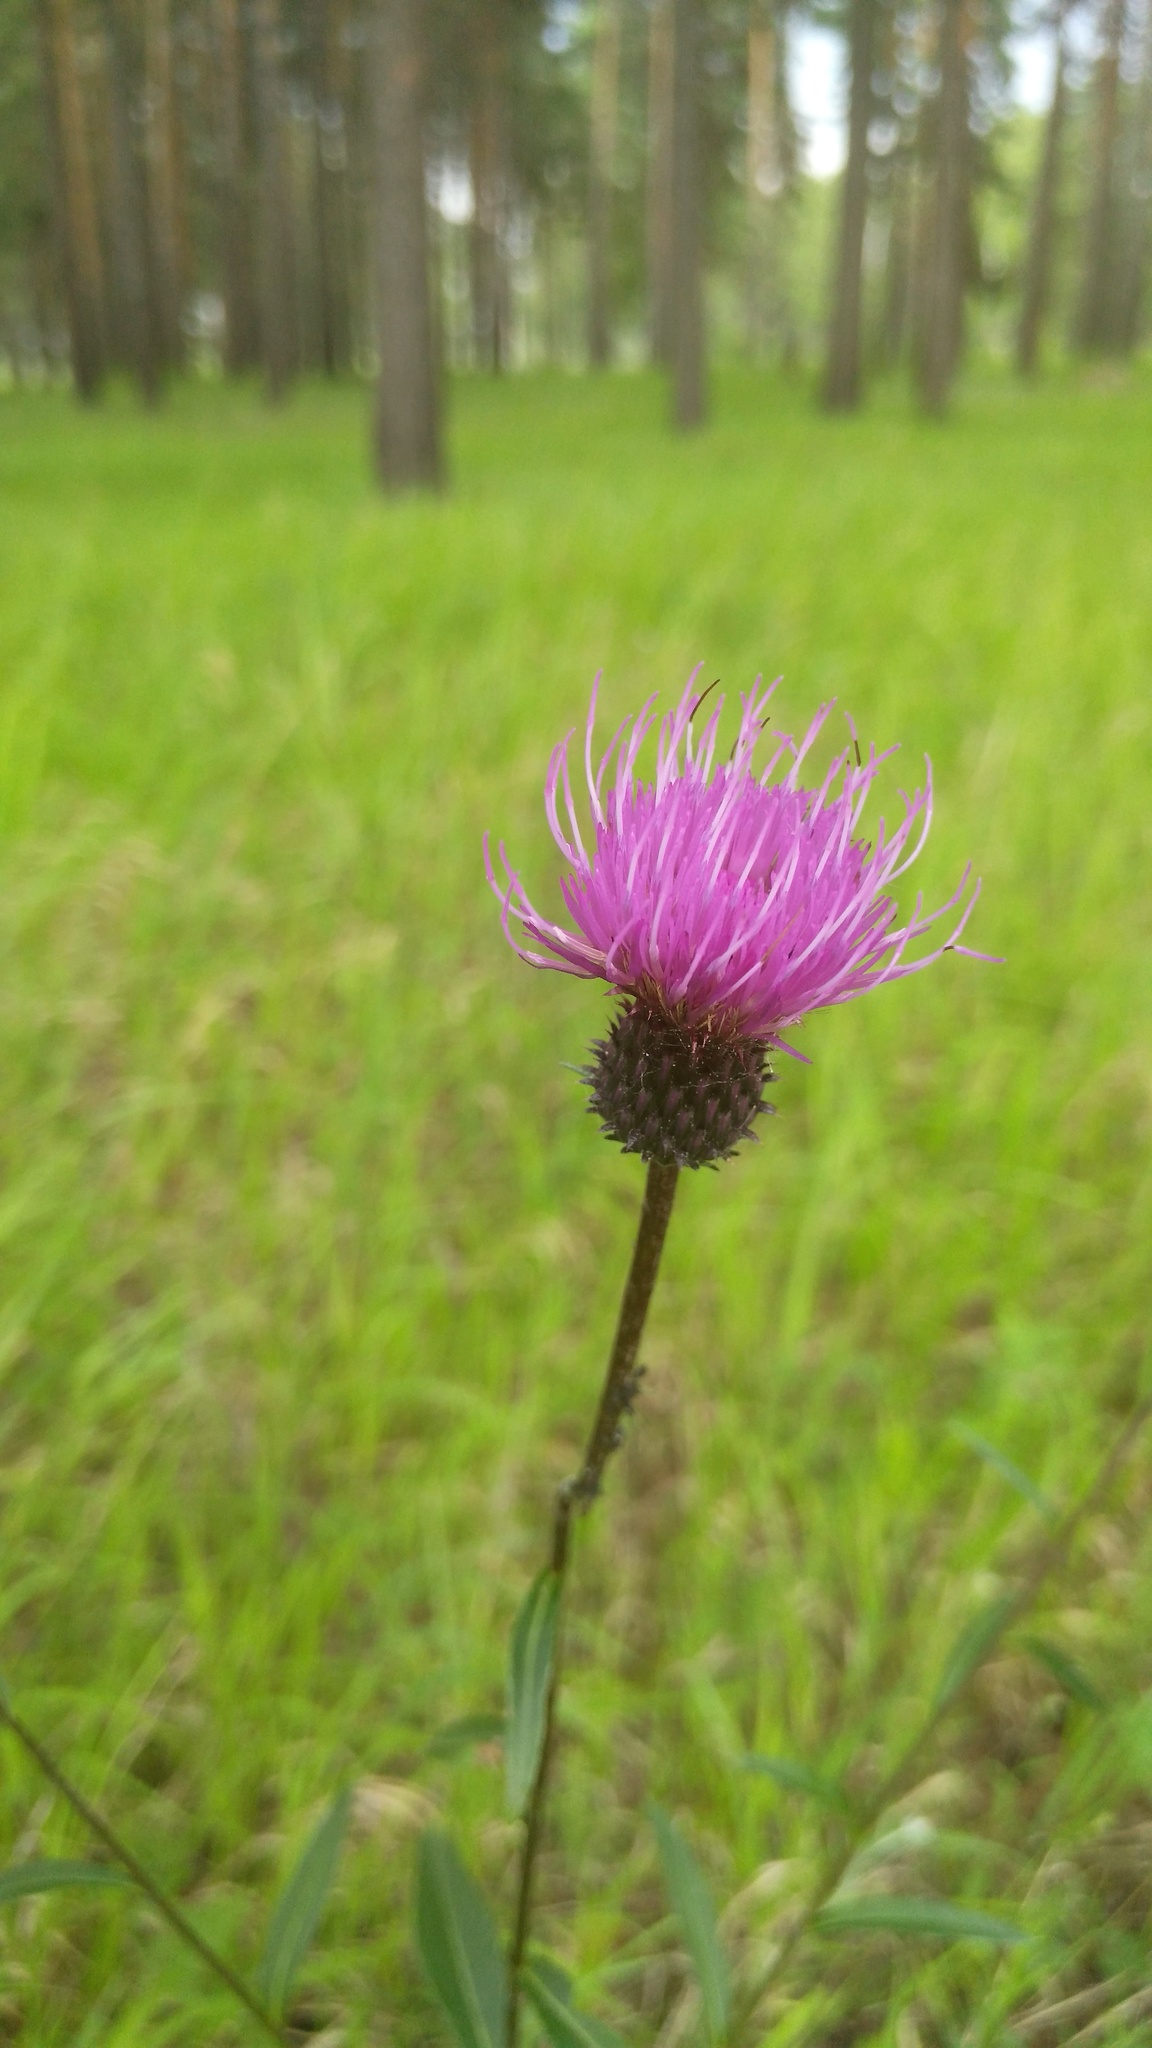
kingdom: Plantae
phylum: Tracheophyta
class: Magnoliopsida
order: Asterales
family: Asteraceae
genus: Cirsium
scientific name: Cirsium serratuloides
